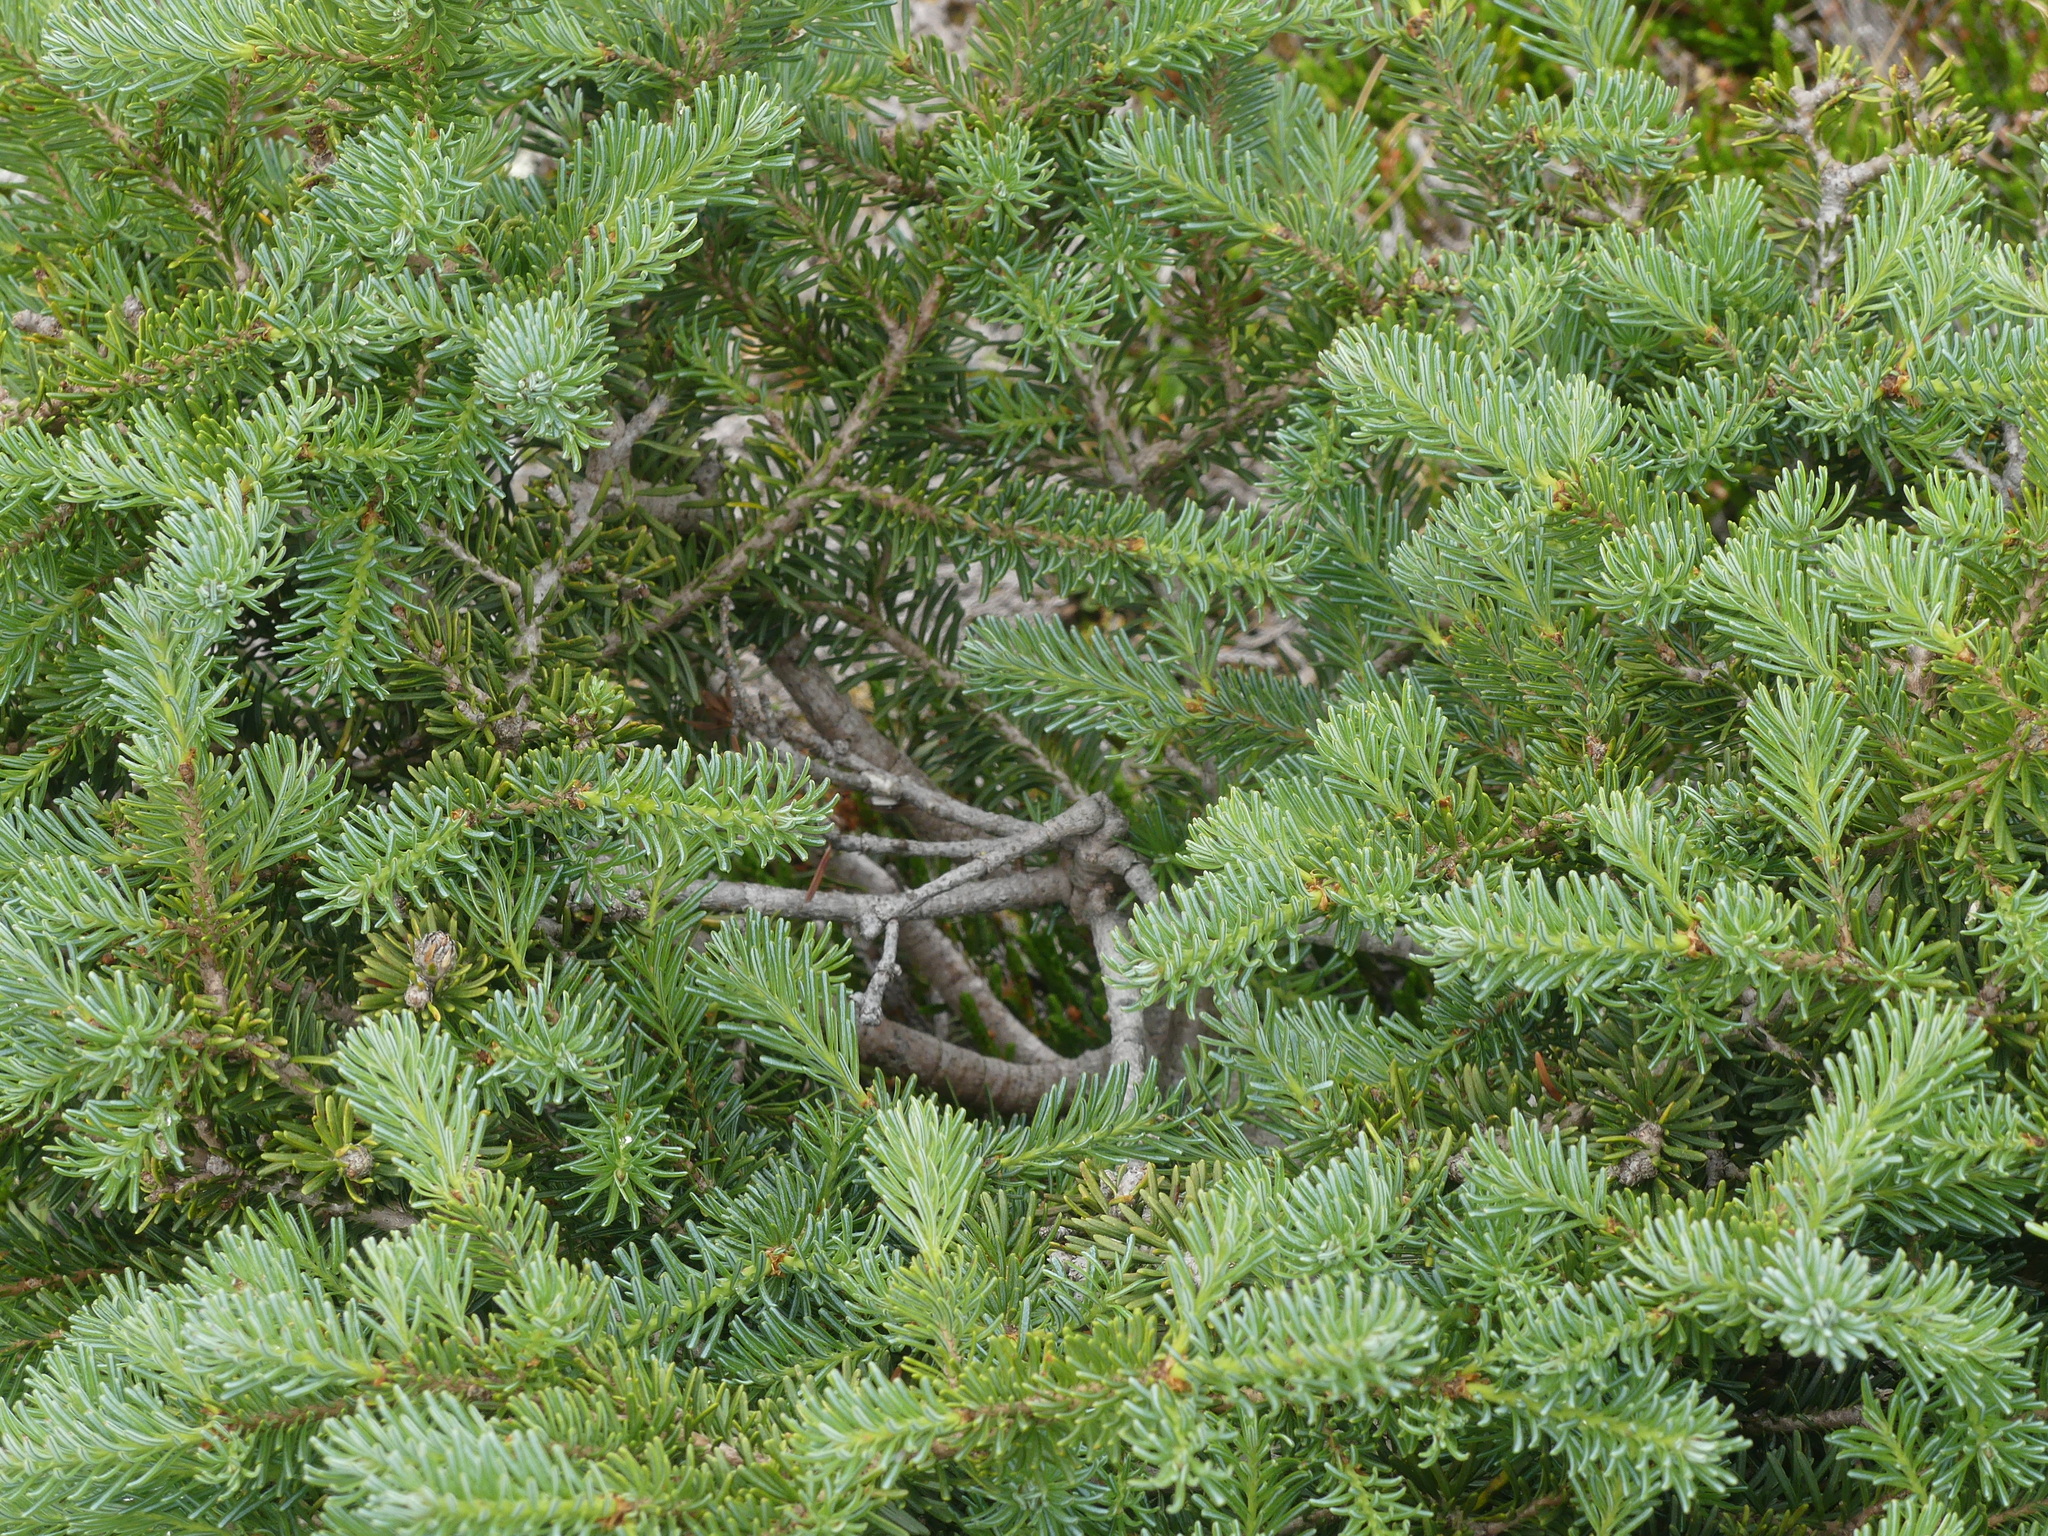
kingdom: Plantae
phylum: Tracheophyta
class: Pinopsida
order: Pinales
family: Pinaceae
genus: Abies
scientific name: Abies lasiocarpa
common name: Subalpine fir
